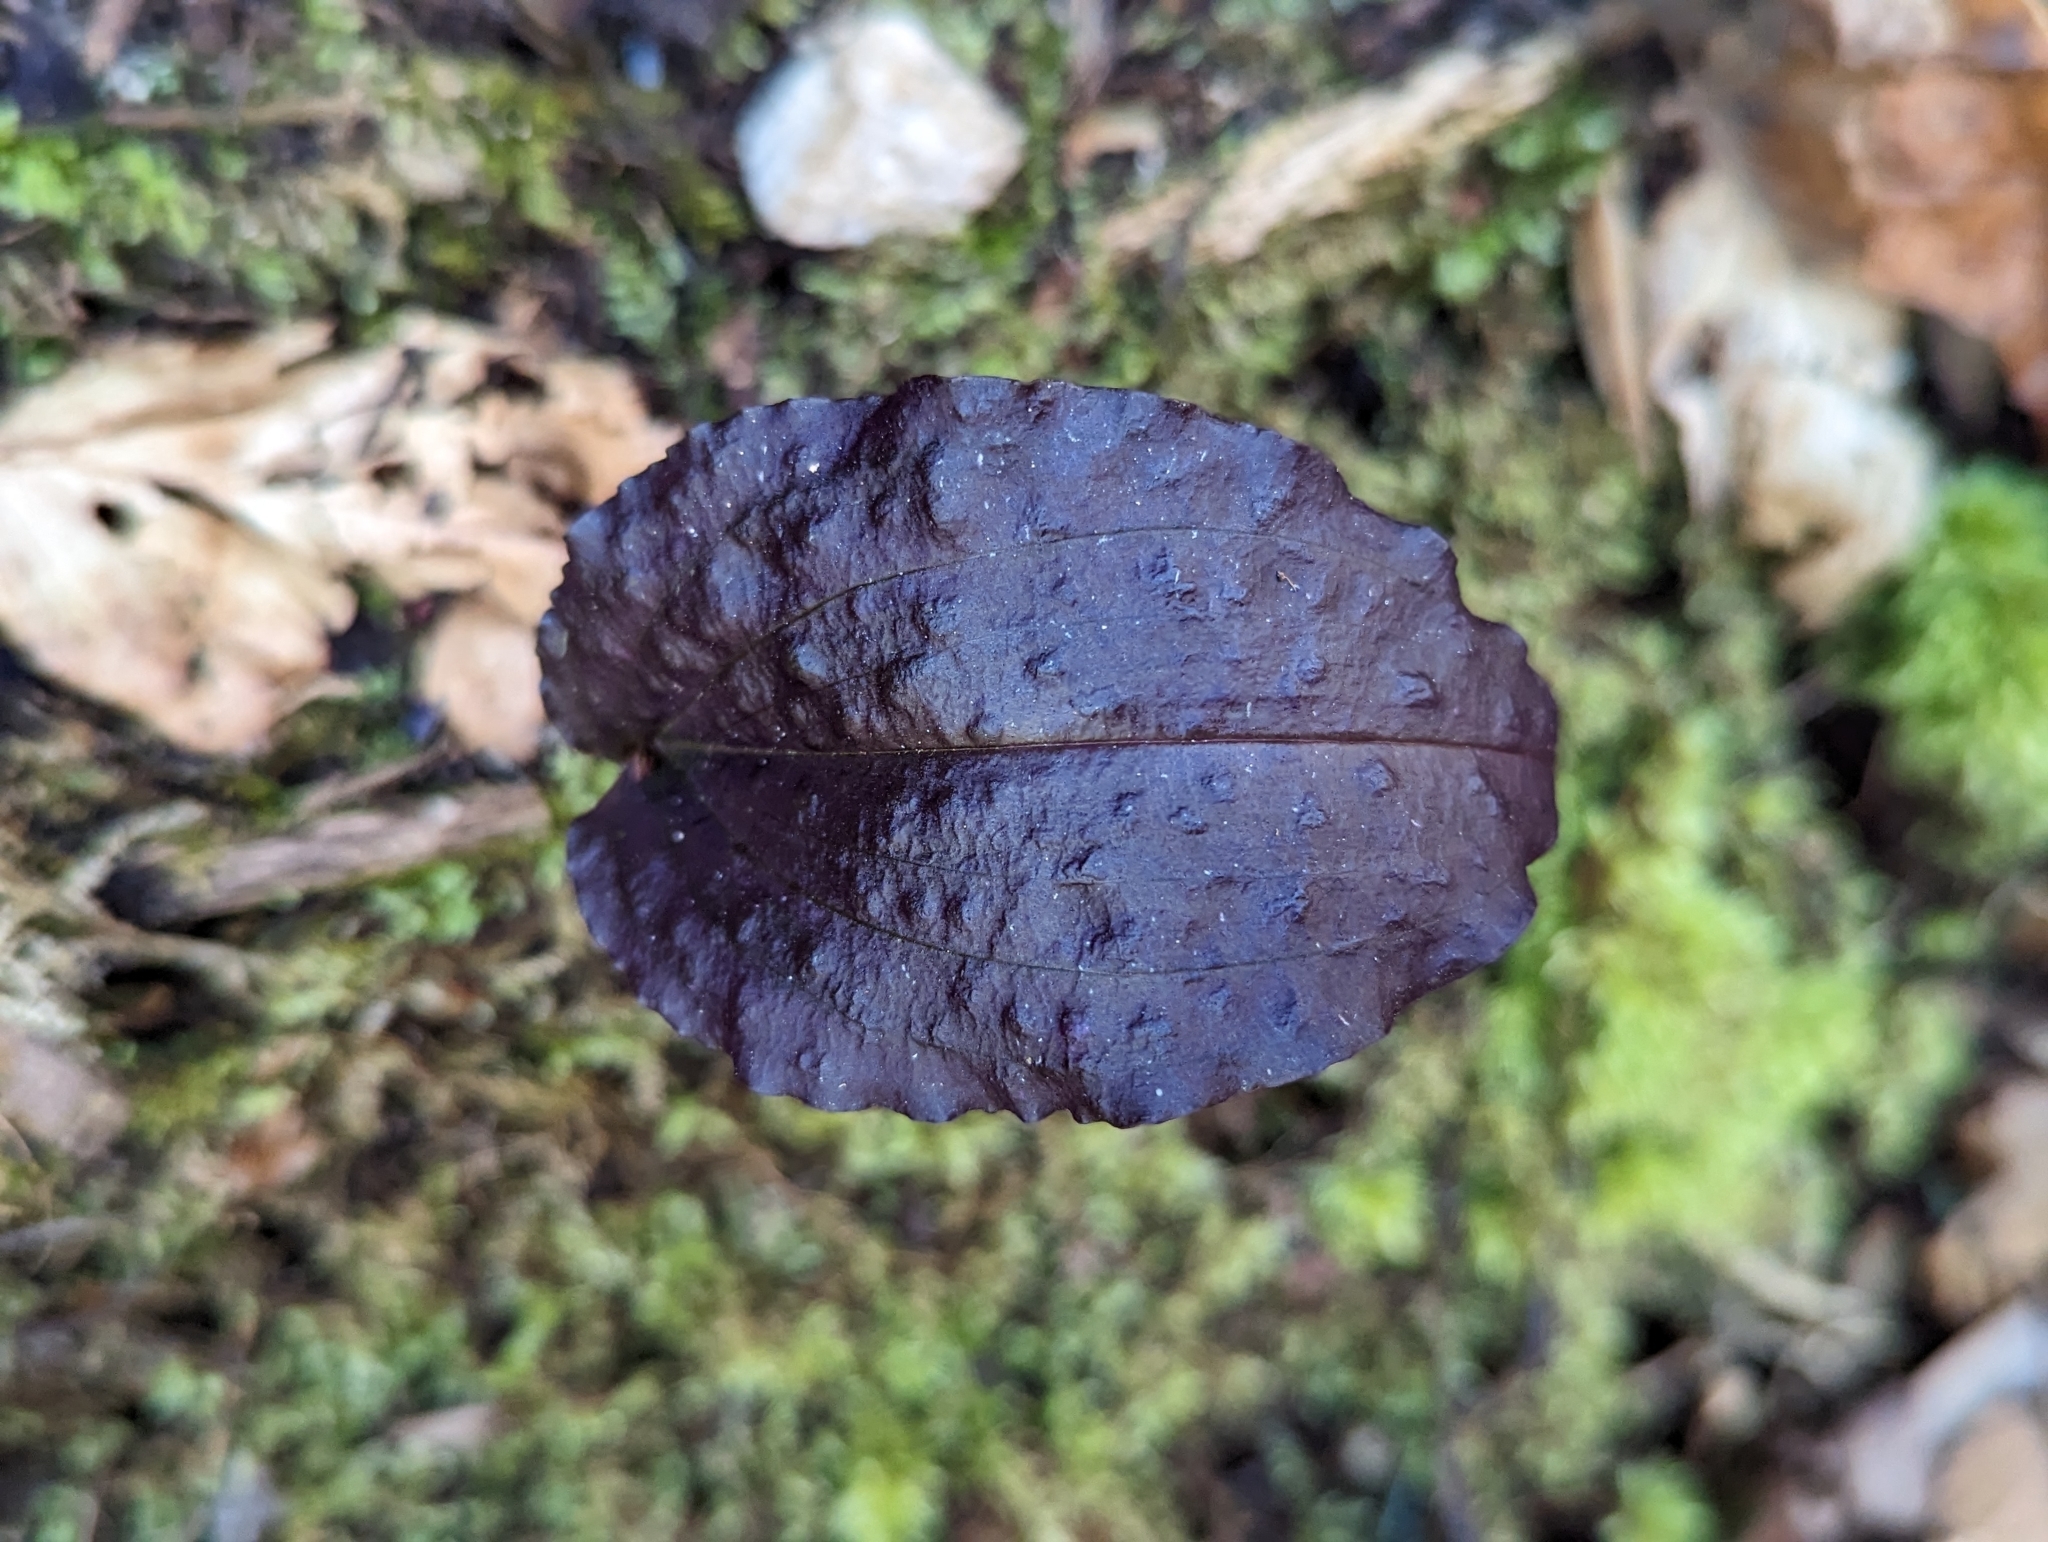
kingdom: Plantae
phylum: Tracheophyta
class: Liliopsida
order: Asparagales
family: Orchidaceae
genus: Tipularia
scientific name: Tipularia discolor
